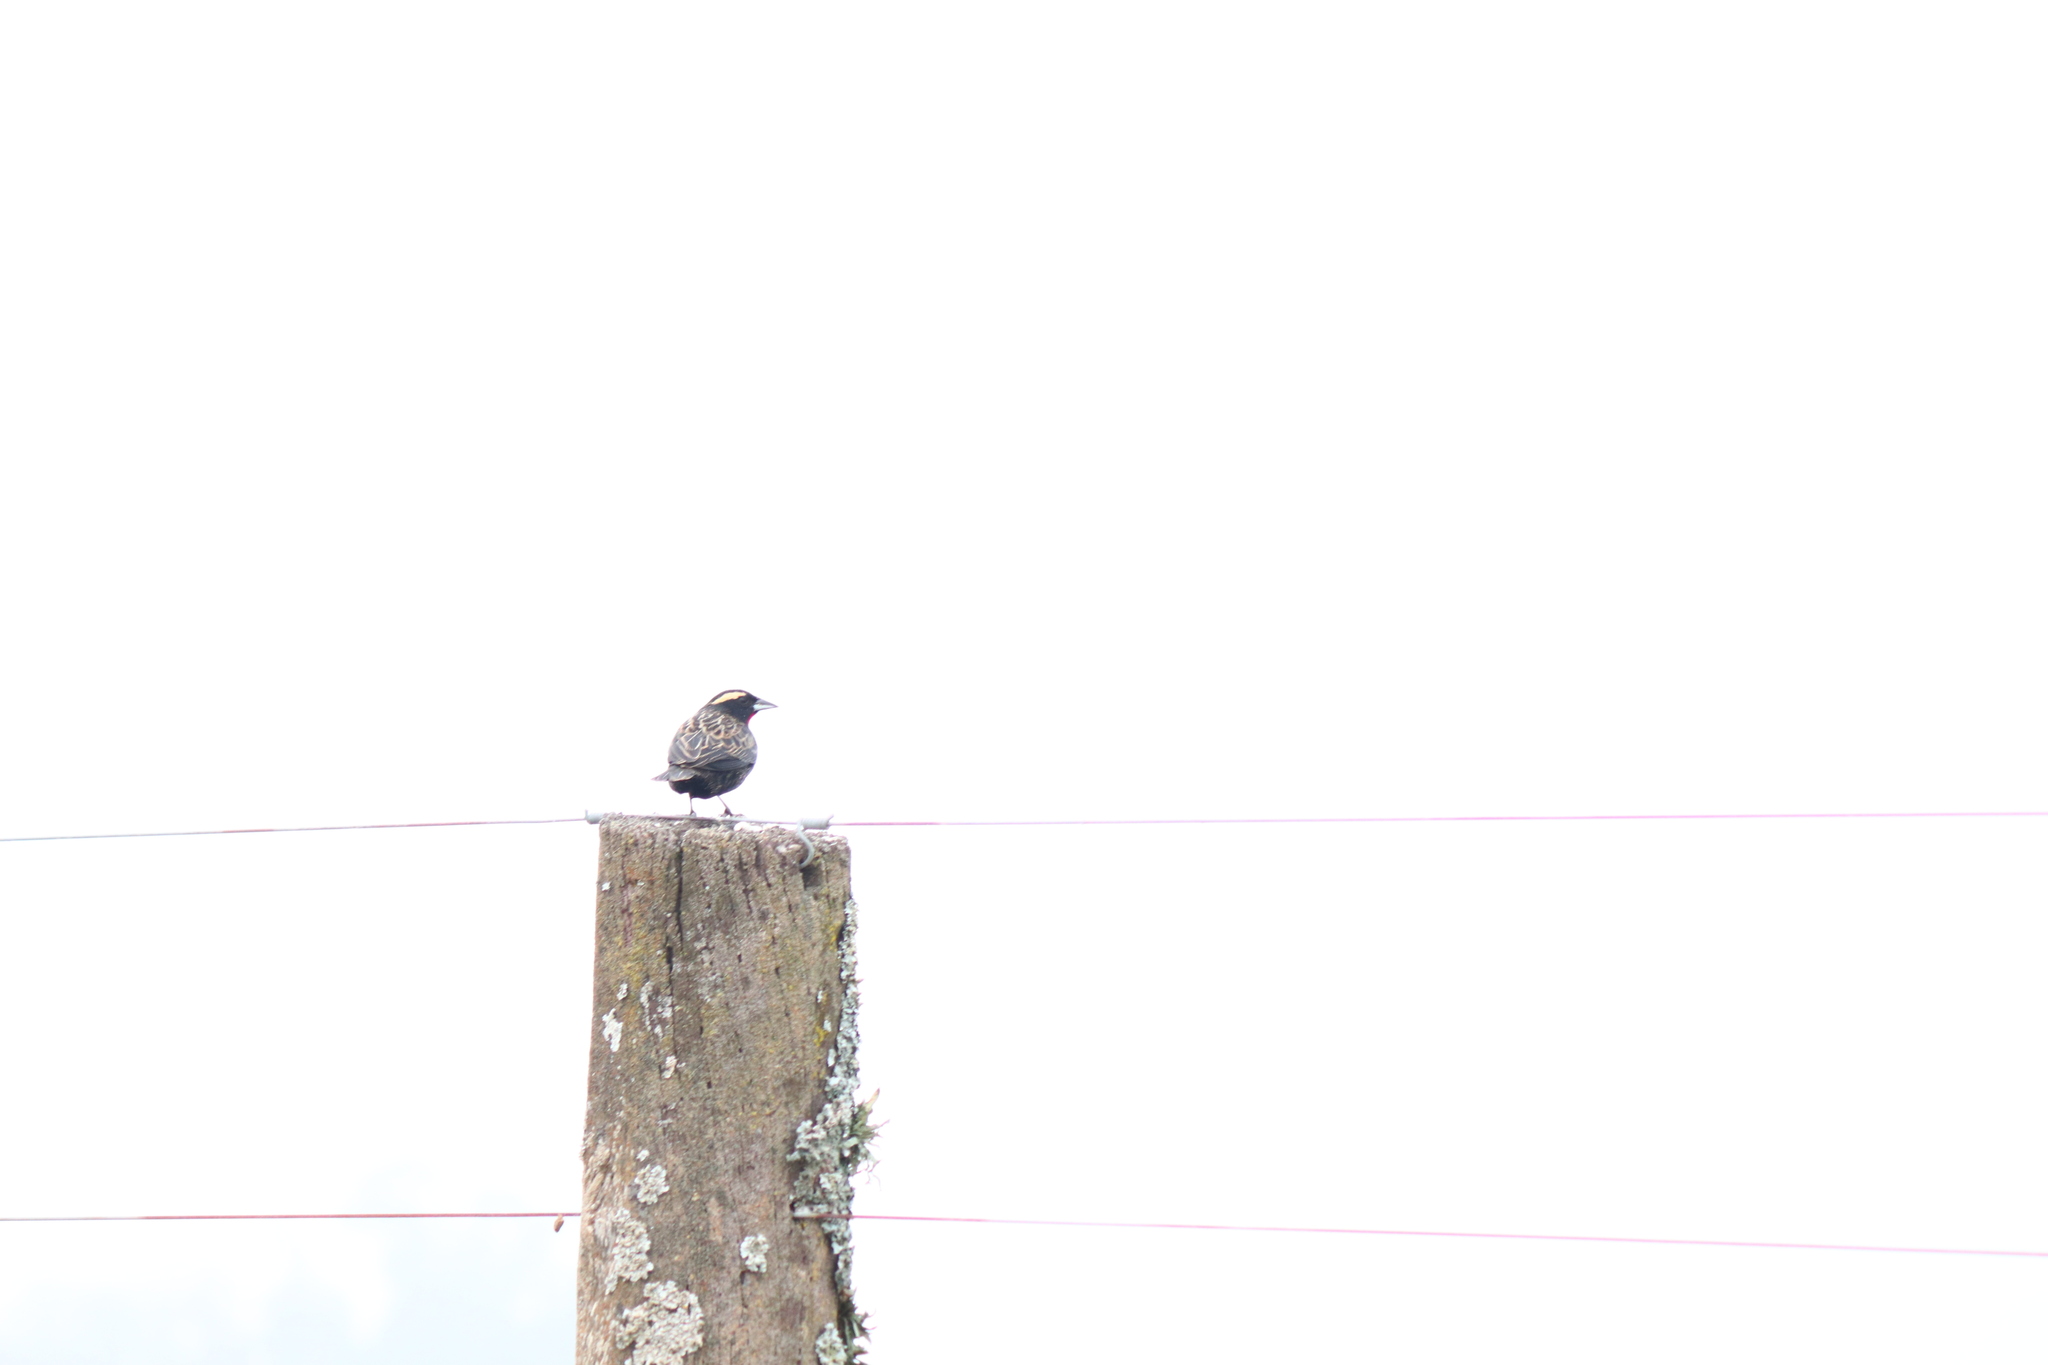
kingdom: Animalia
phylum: Chordata
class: Aves
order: Passeriformes
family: Icteridae
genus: Sturnella
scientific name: Sturnella superciliaris
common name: White-browed blackbird
